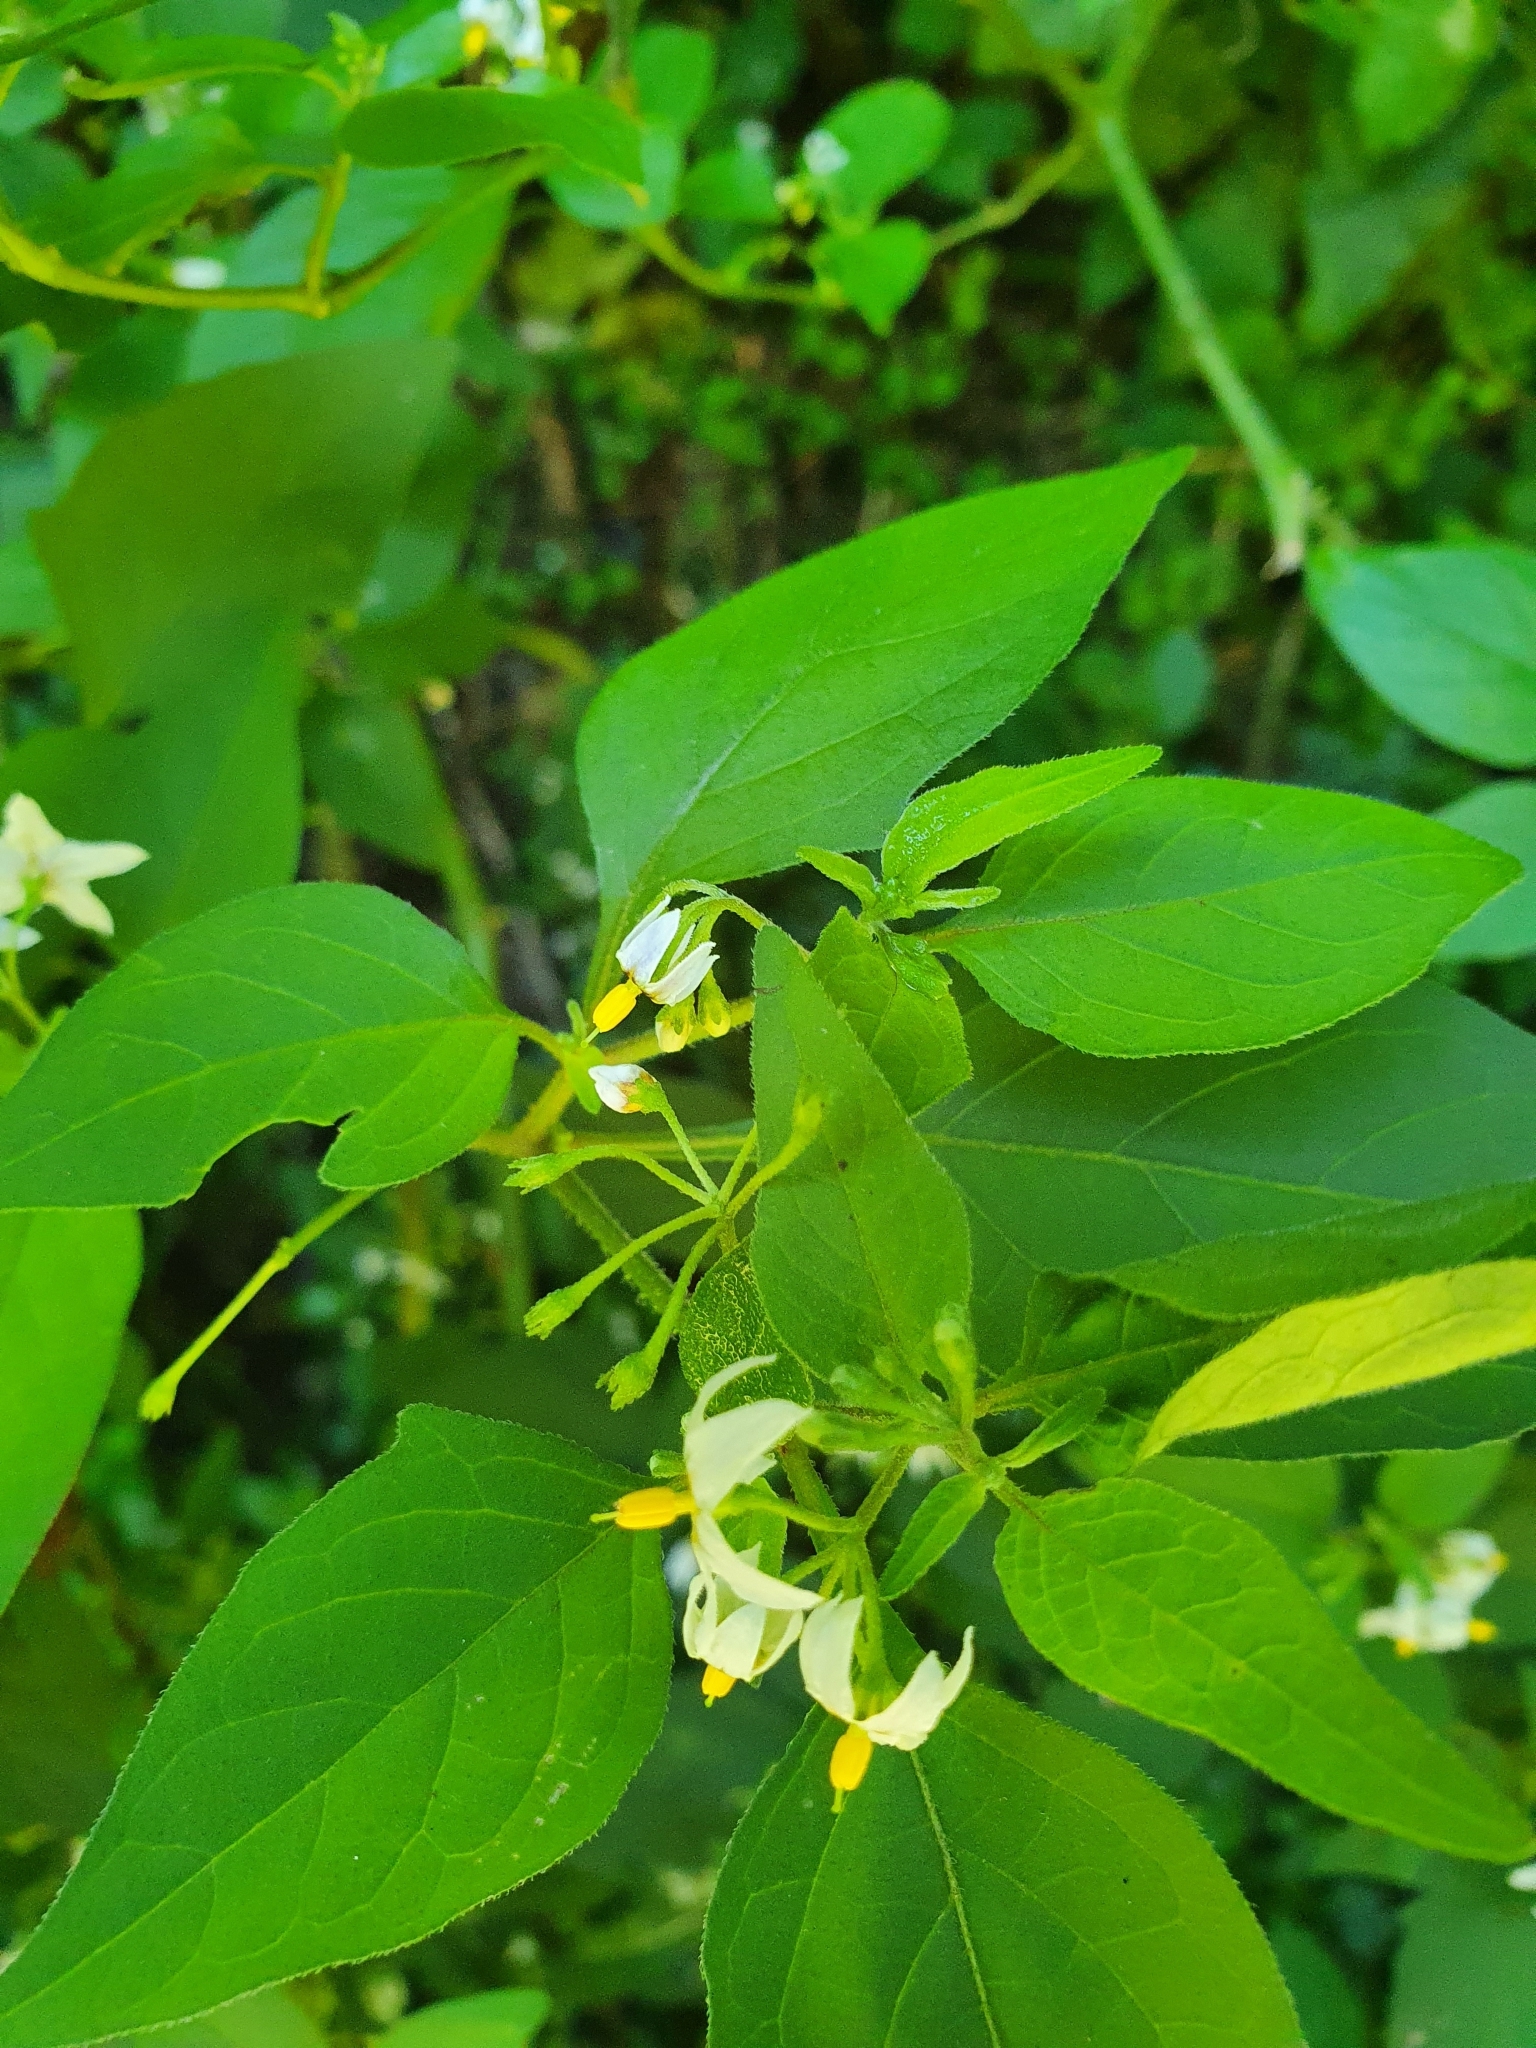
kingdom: Plantae
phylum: Tracheophyta
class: Magnoliopsida
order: Solanales
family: Solanaceae
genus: Solanum
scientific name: Solanum chenopodioides
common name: Tall nightshade
